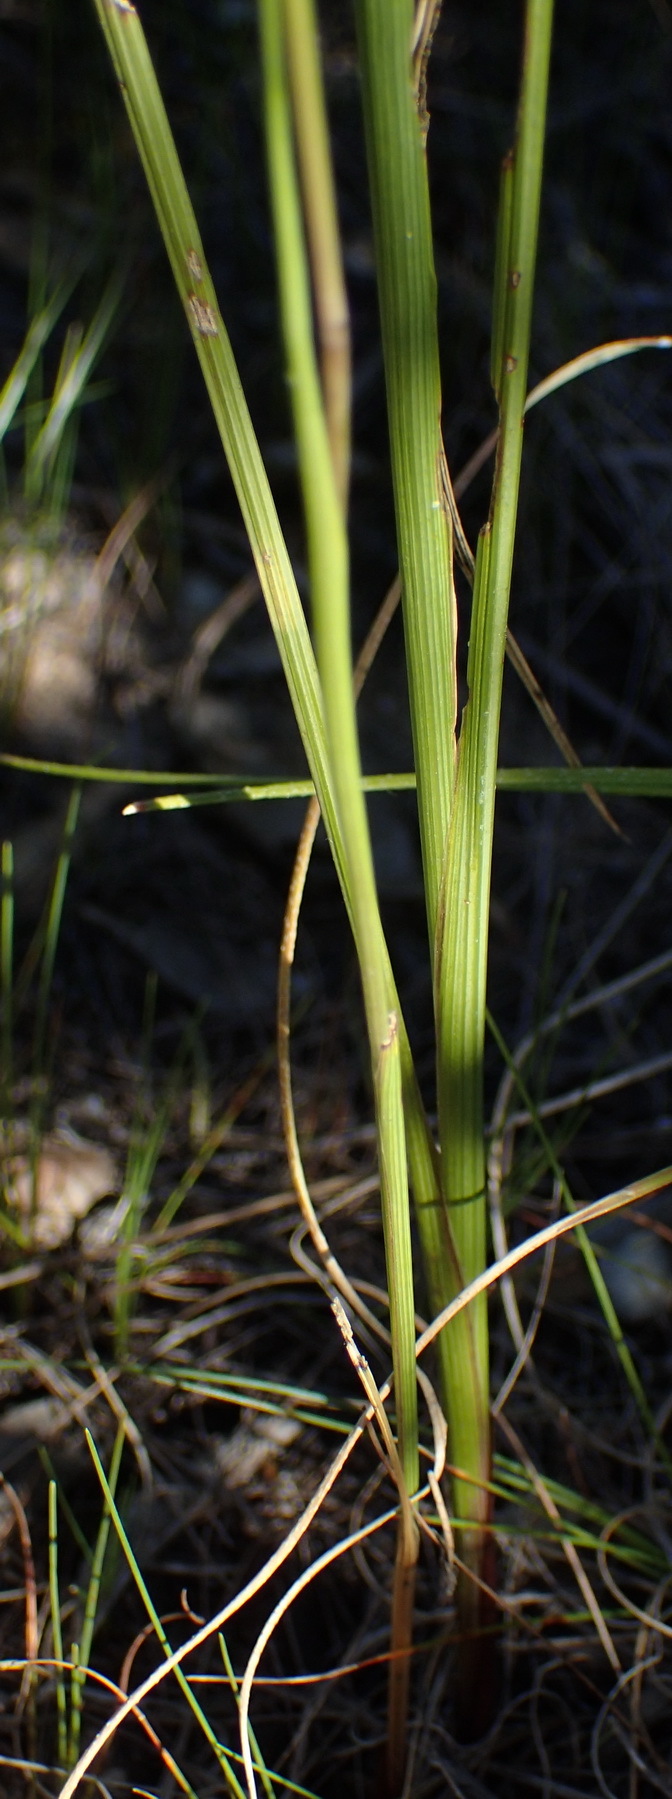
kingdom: Plantae
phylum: Tracheophyta
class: Liliopsida
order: Asparagales
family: Iridaceae
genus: Gladiolus
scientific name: Gladiolus carinatus
